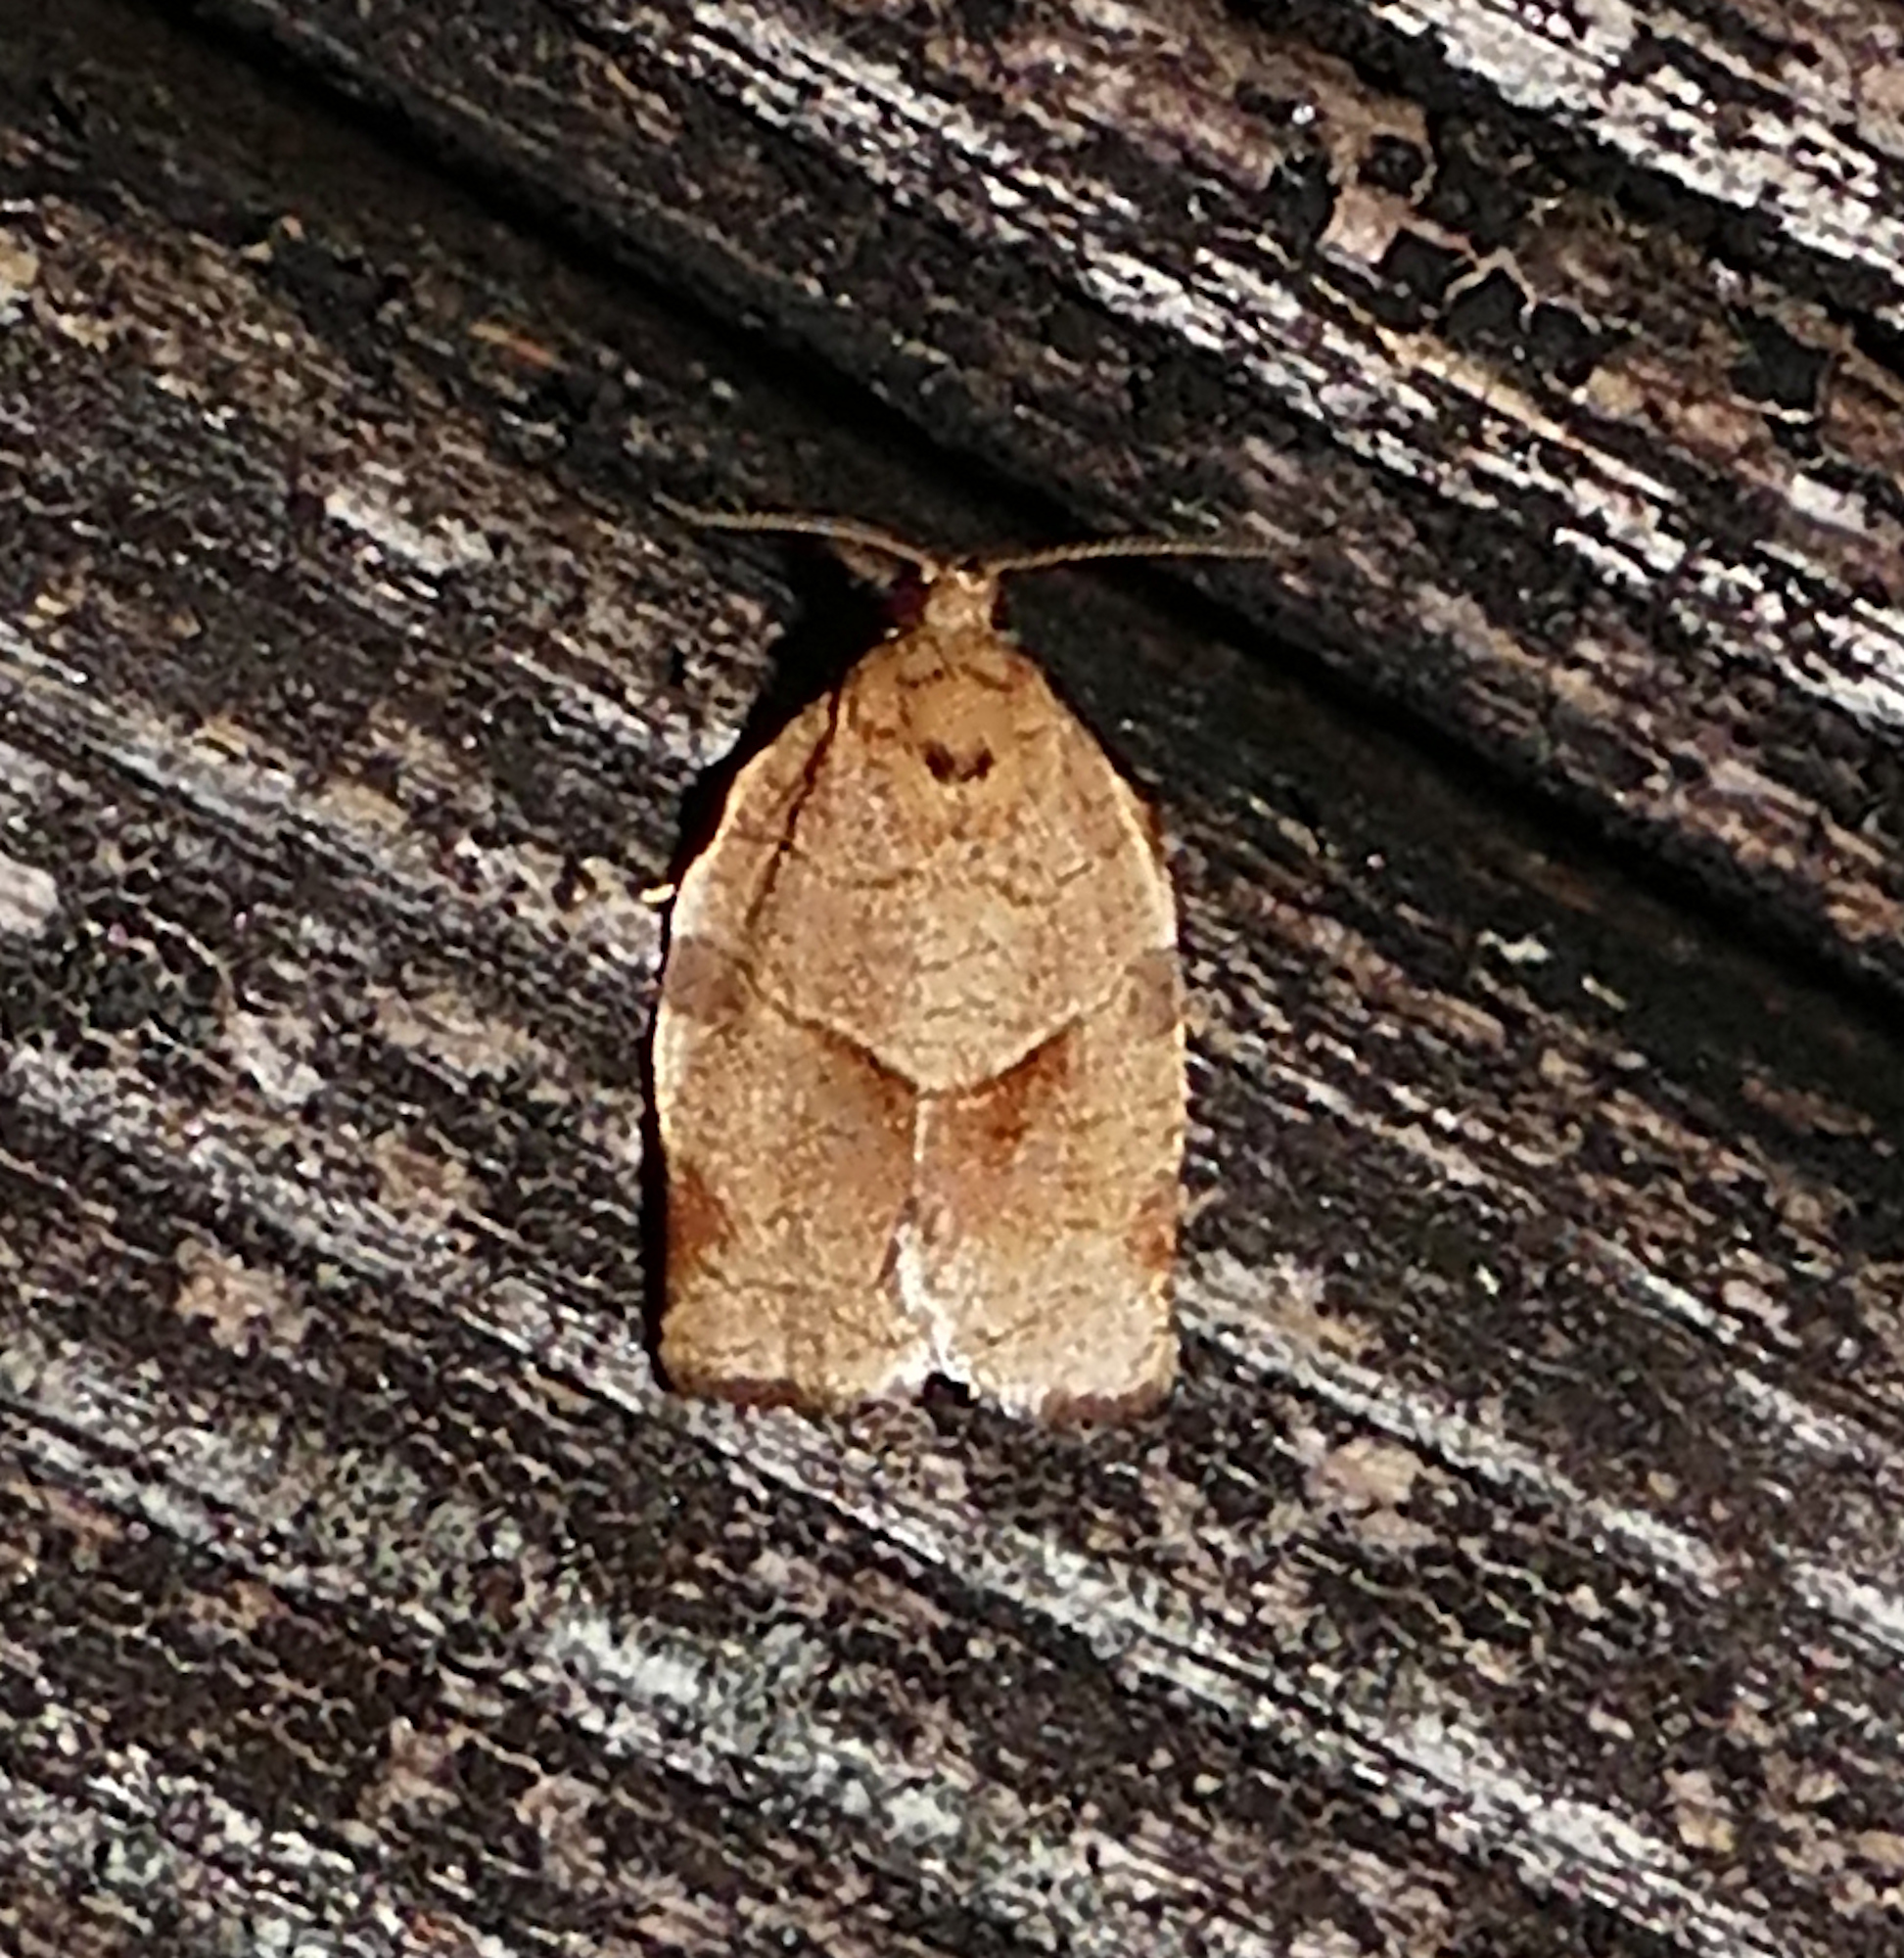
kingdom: Animalia
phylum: Arthropoda
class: Insecta
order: Lepidoptera
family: Tortricidae
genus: Choristoneura
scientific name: Choristoneura rosaceana
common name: Oblique-banded leafroller moth
